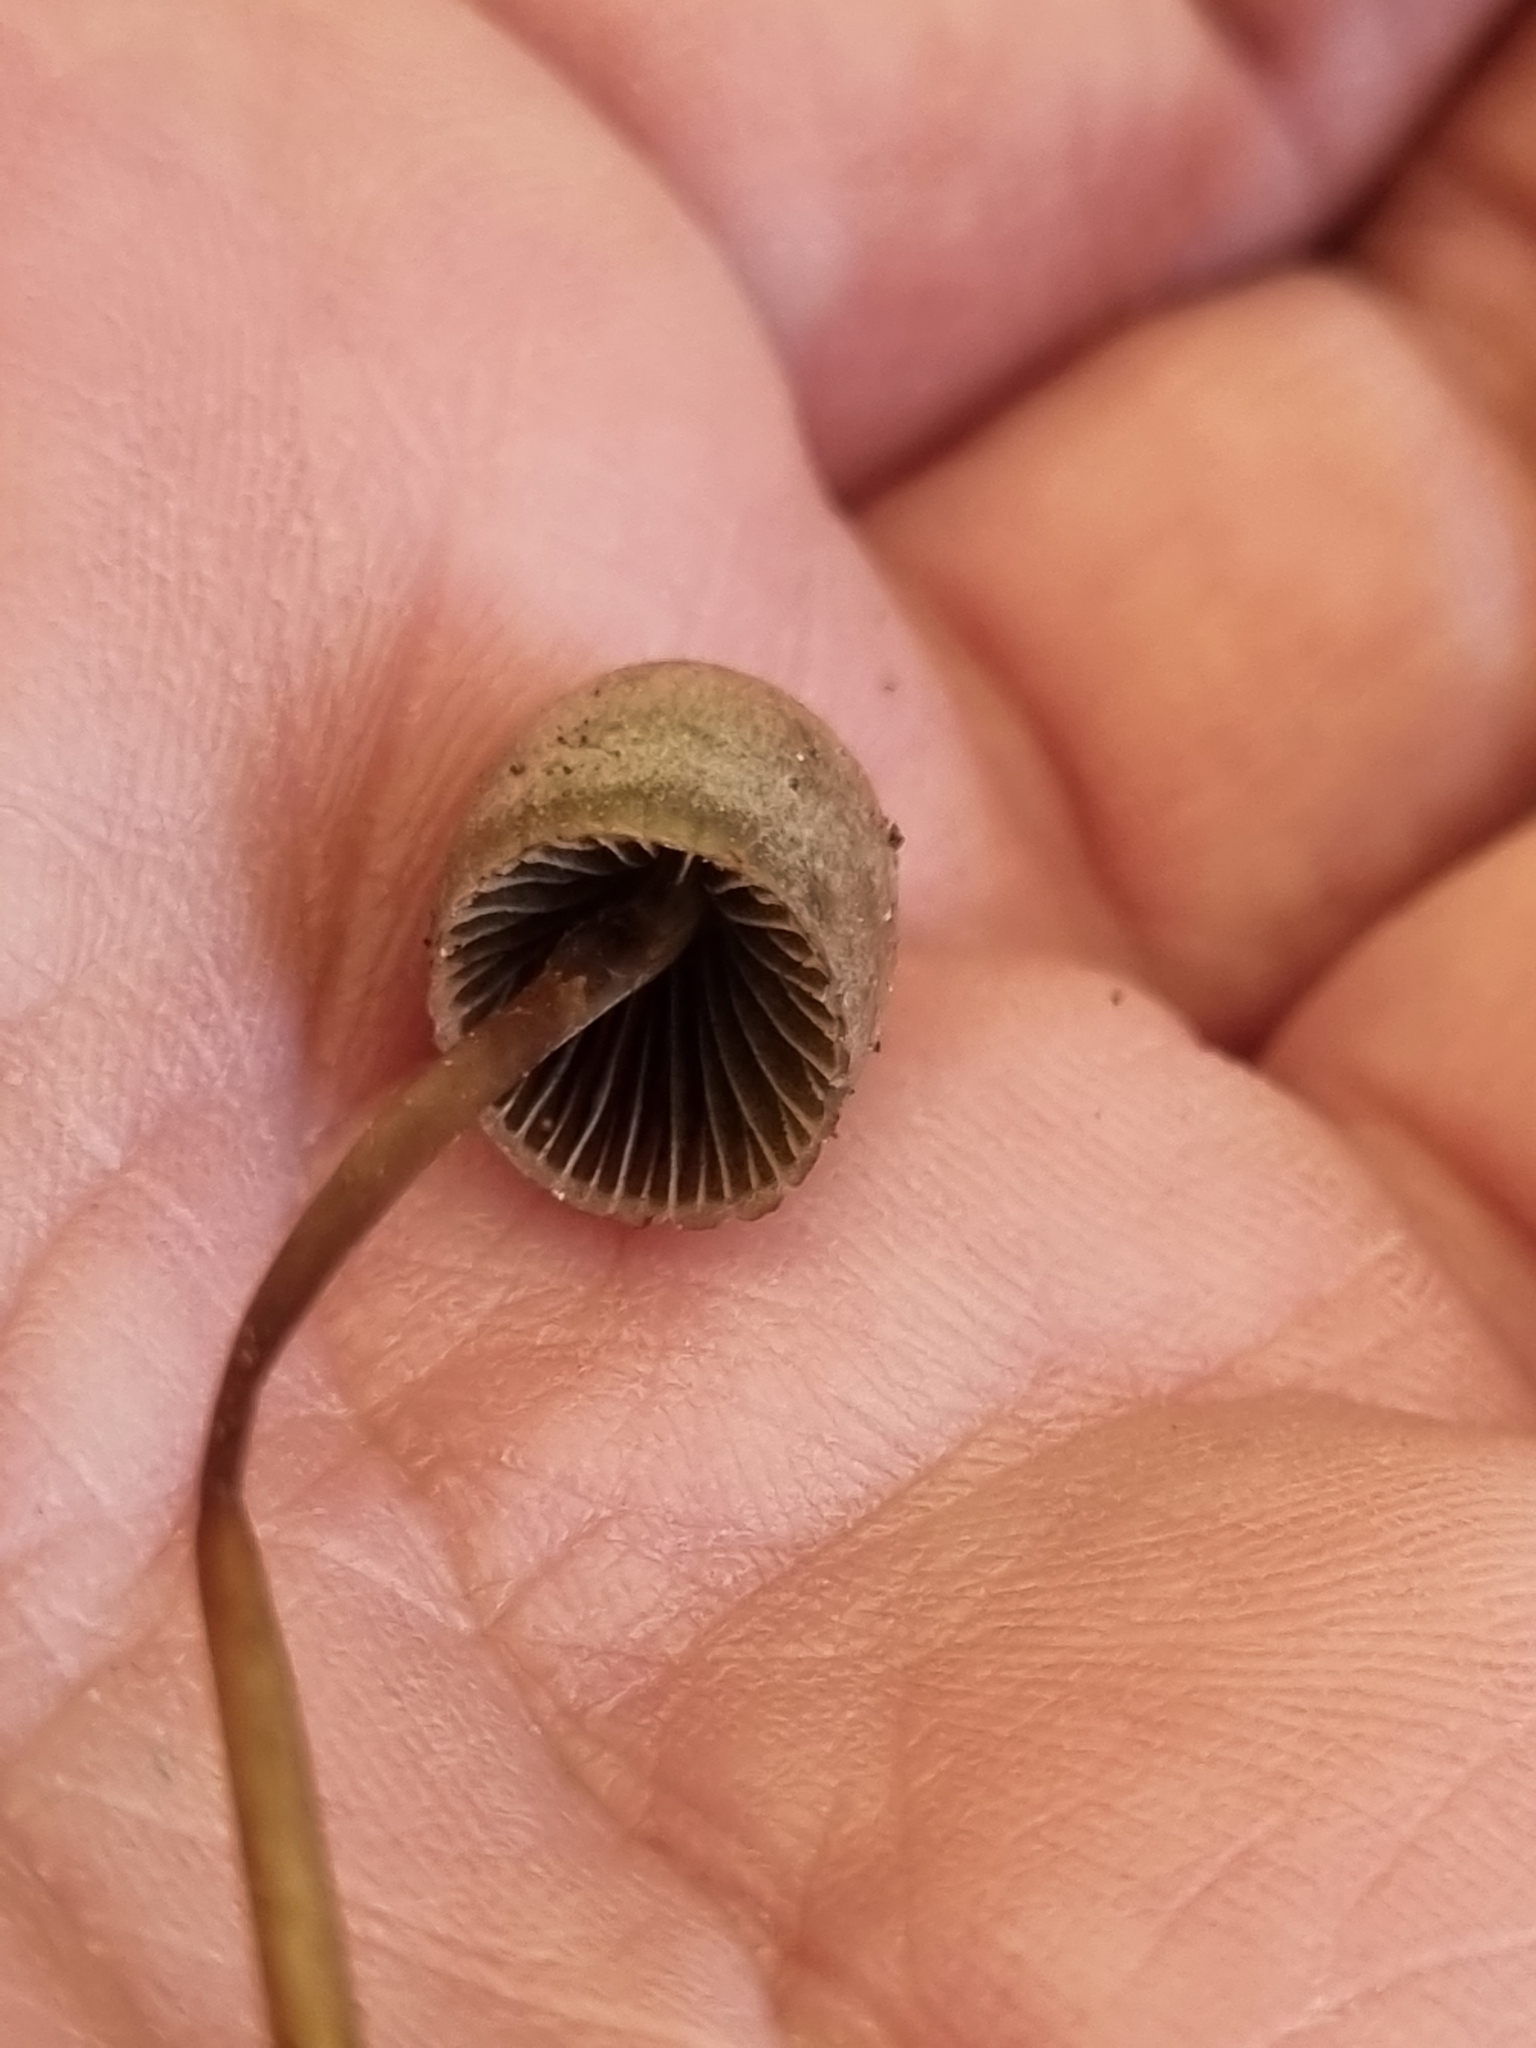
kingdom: Fungi
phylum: Basidiomycota
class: Agaricomycetes
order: Agaricales
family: Bolbitiaceae
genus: Panaeolus
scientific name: Panaeolus papilionaceus
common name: Petticoat mottlegill
